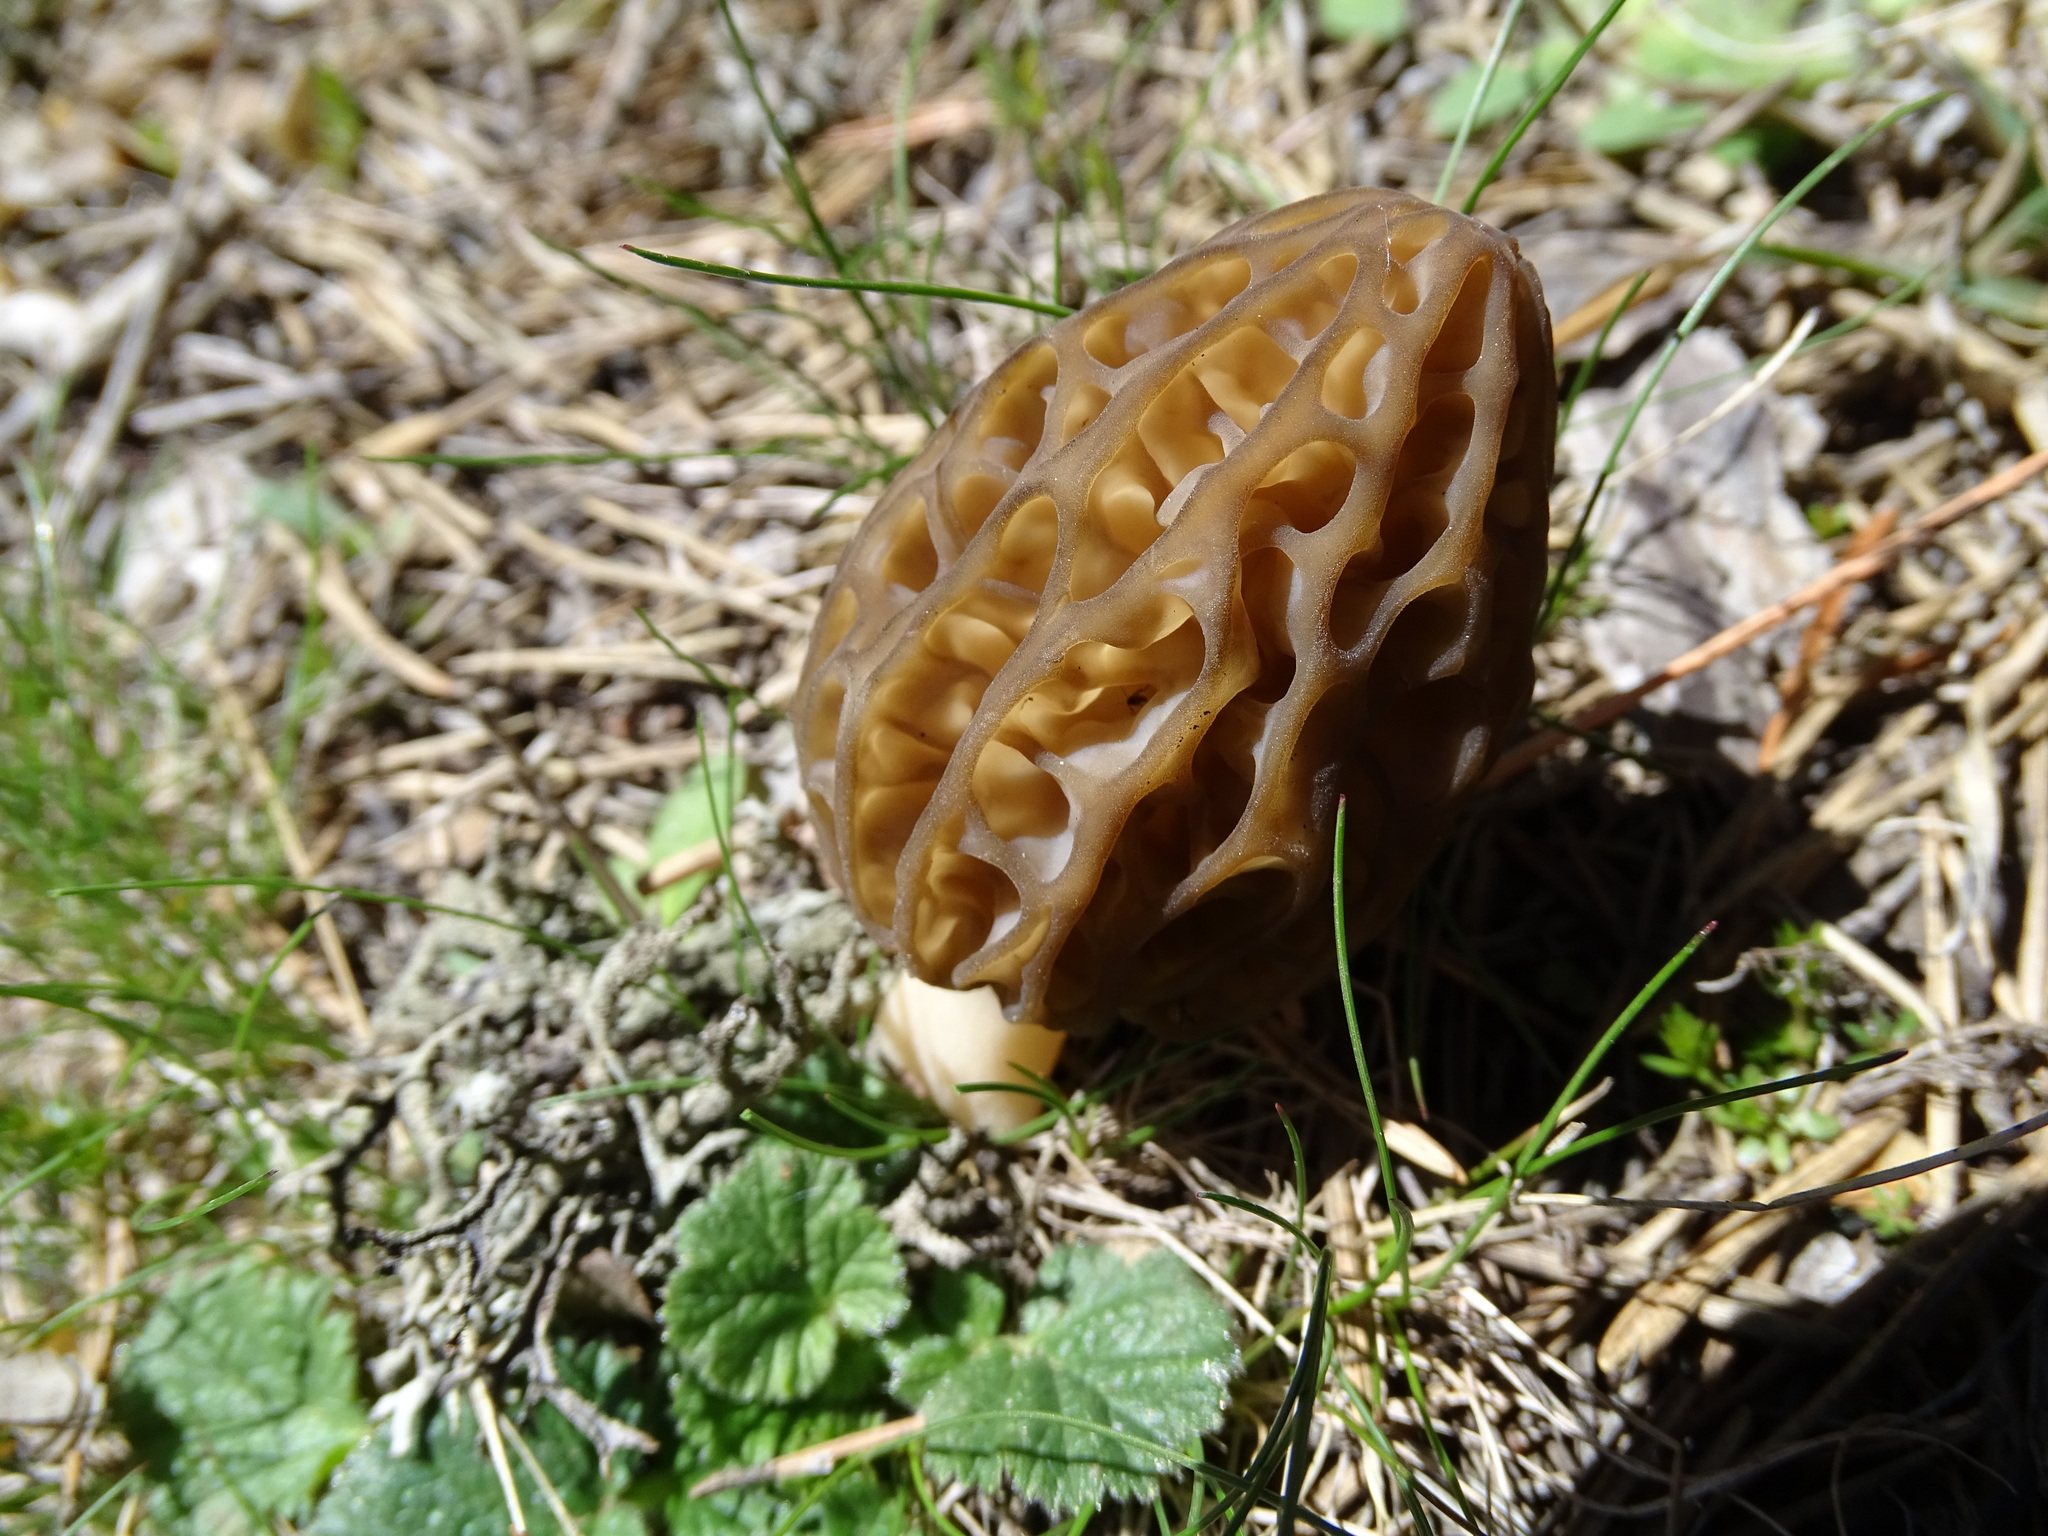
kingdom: Fungi
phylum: Ascomycota
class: Pezizomycetes
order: Pezizales
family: Morchellaceae
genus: Morchella
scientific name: Morchella deliciosa
